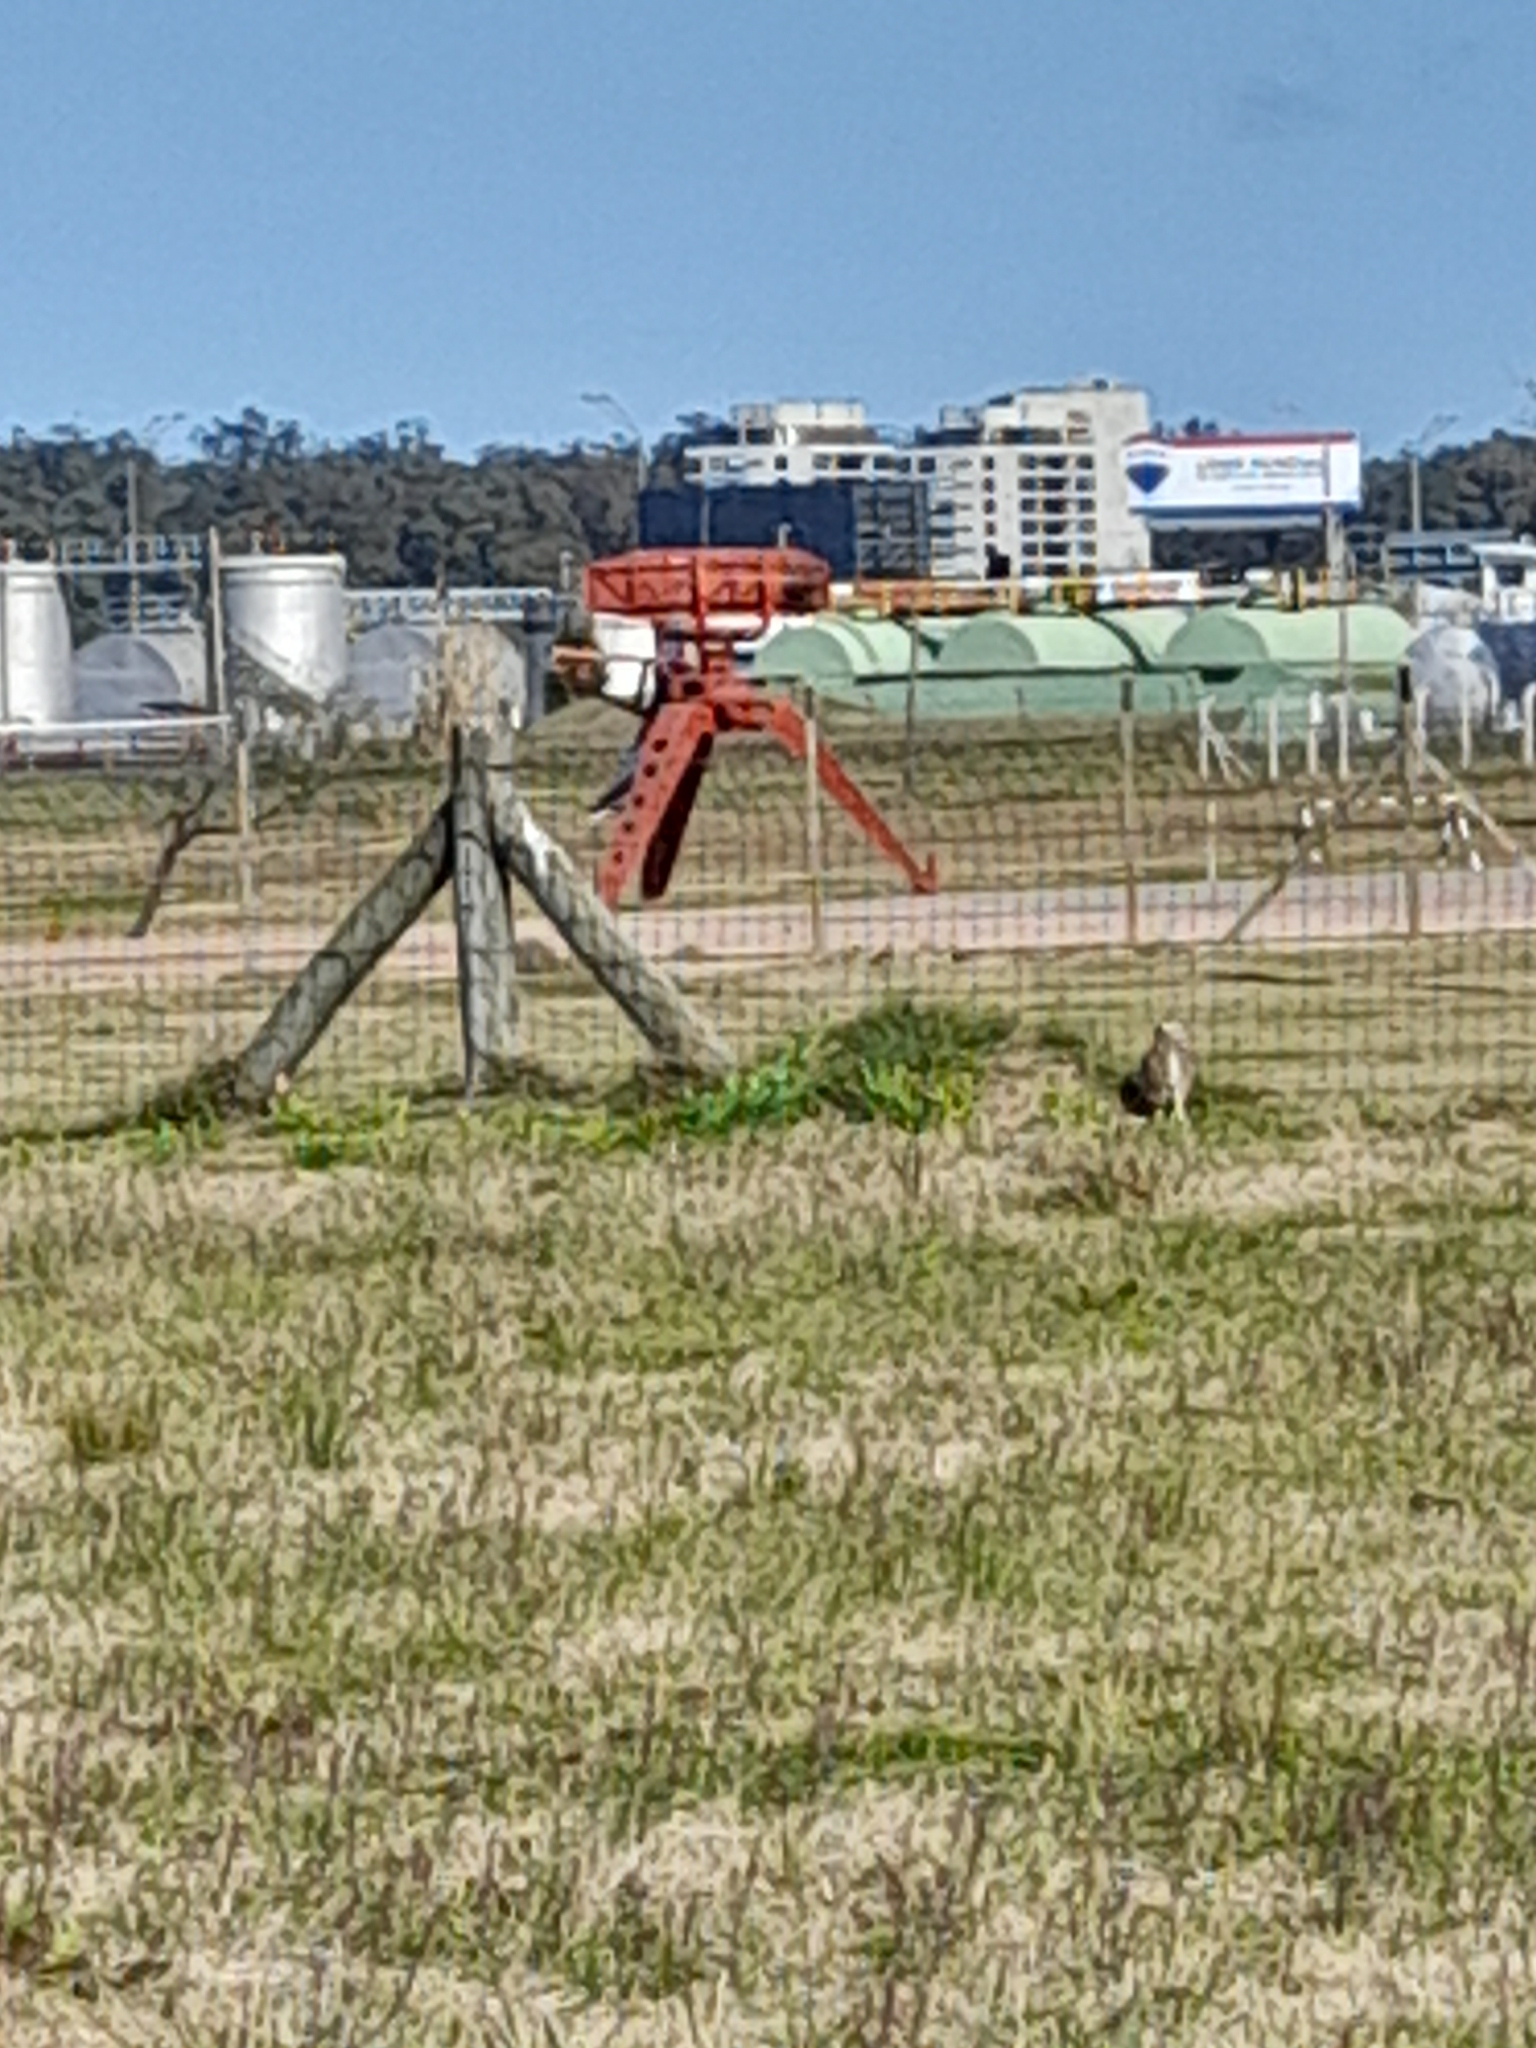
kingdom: Animalia
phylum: Chordata
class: Aves
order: Strigiformes
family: Strigidae
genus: Athene
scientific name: Athene cunicularia
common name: Burrowing owl
